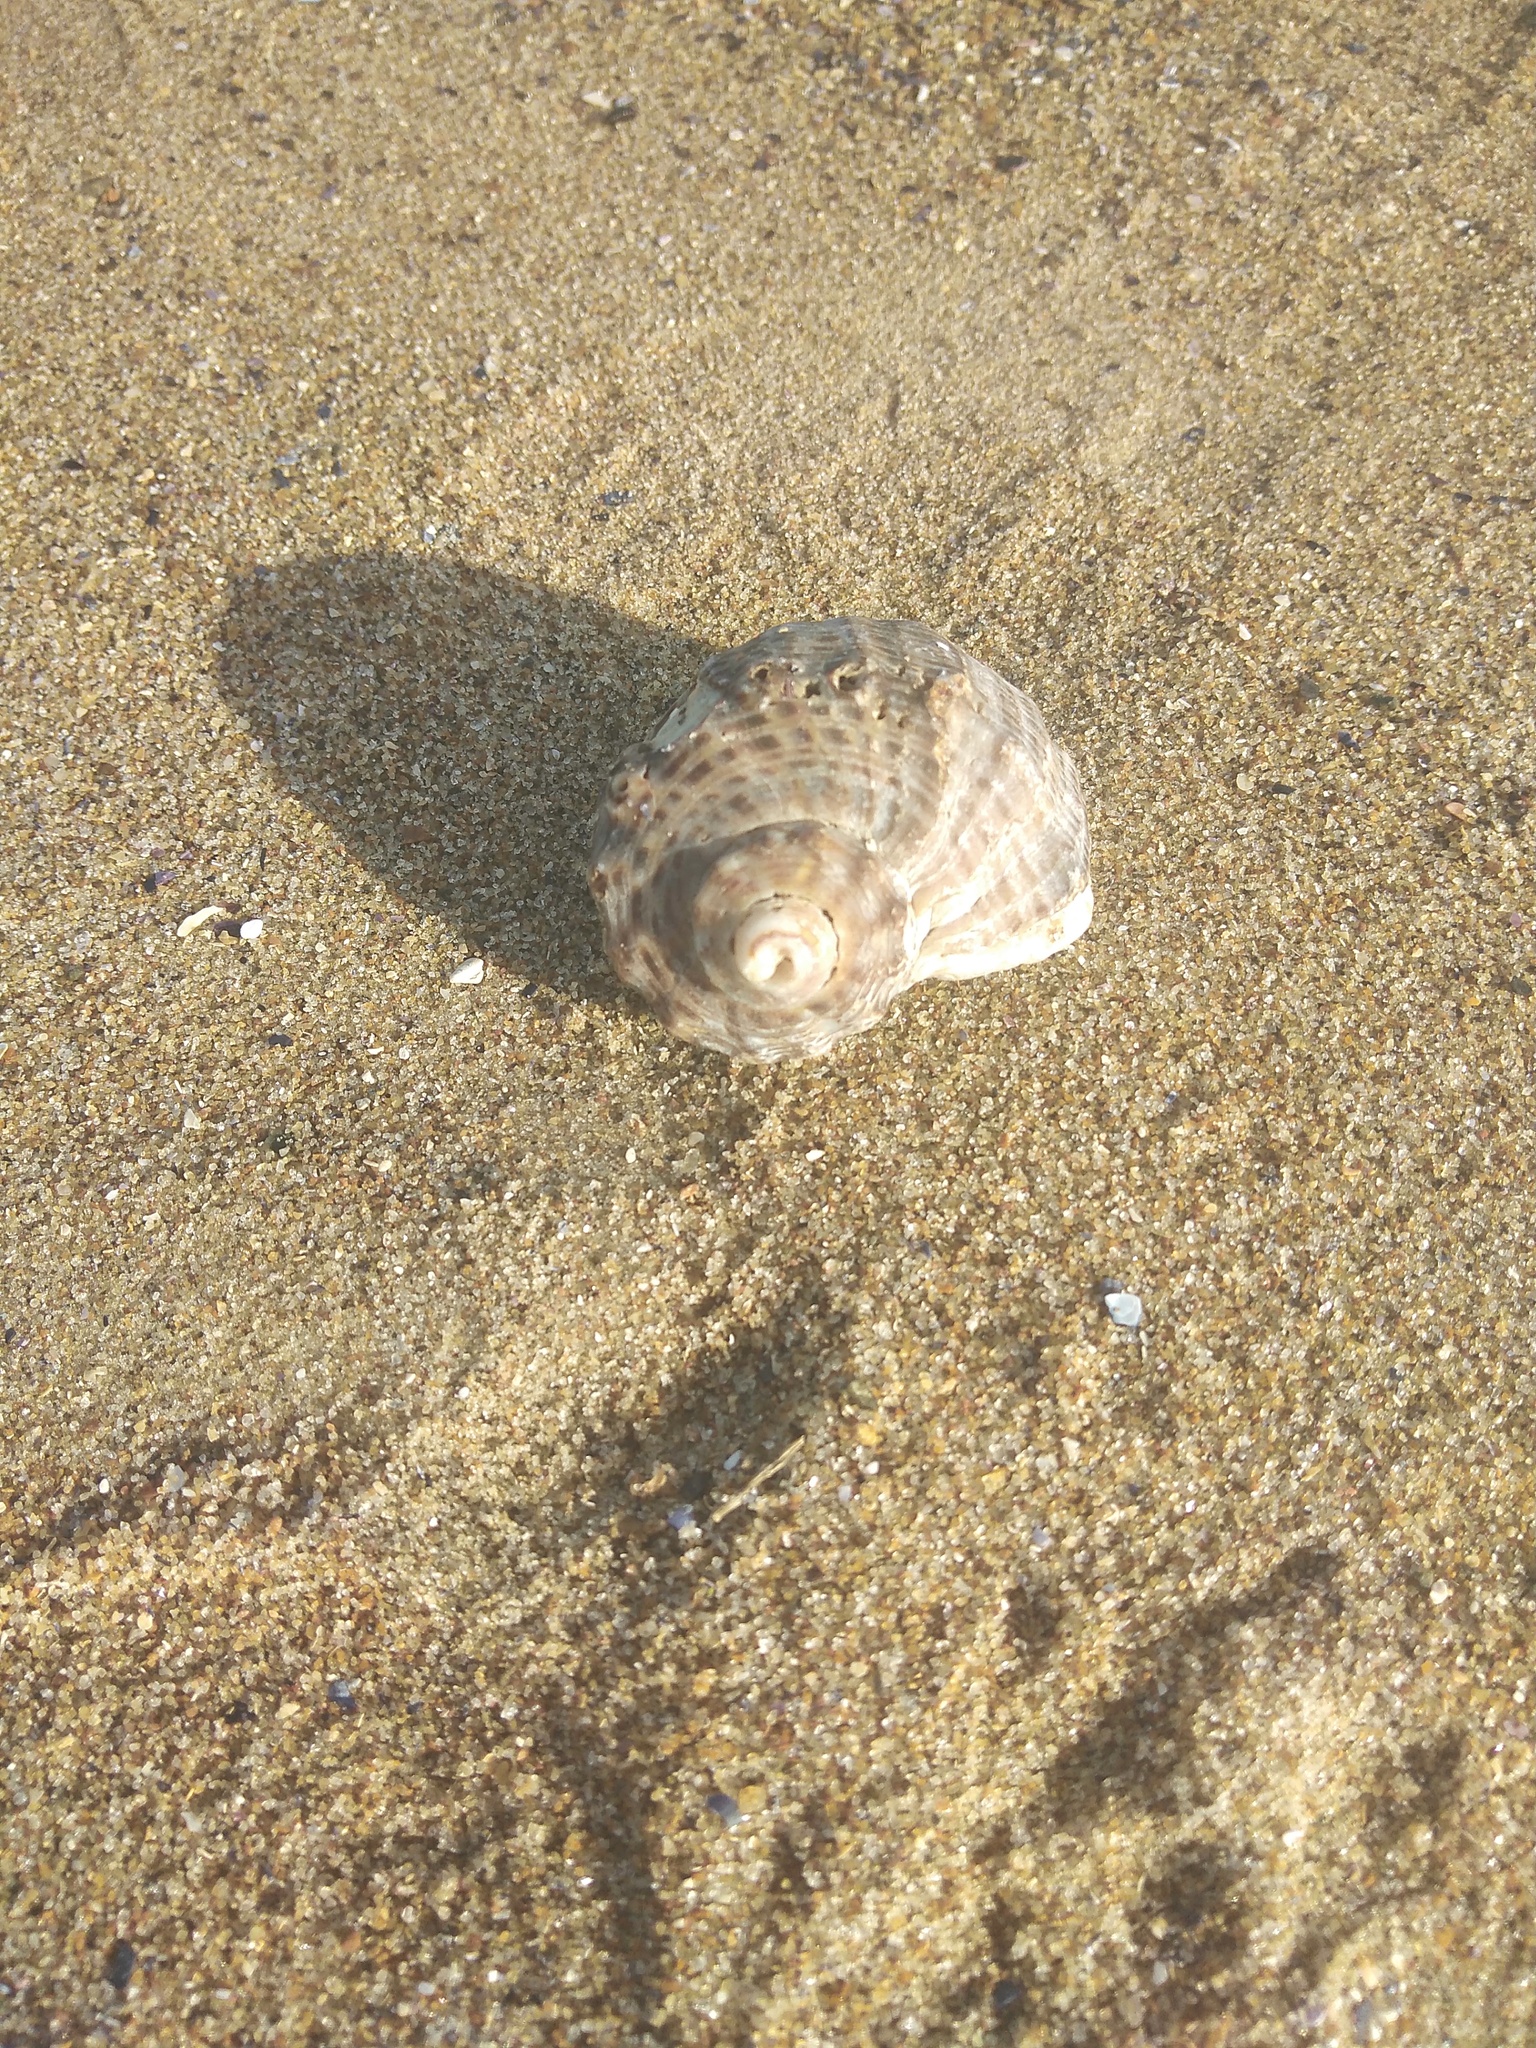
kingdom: Animalia
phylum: Mollusca
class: Gastropoda
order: Neogastropoda
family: Muricidae
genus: Rapana
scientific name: Rapana venosa
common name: Veined rapa whelk
